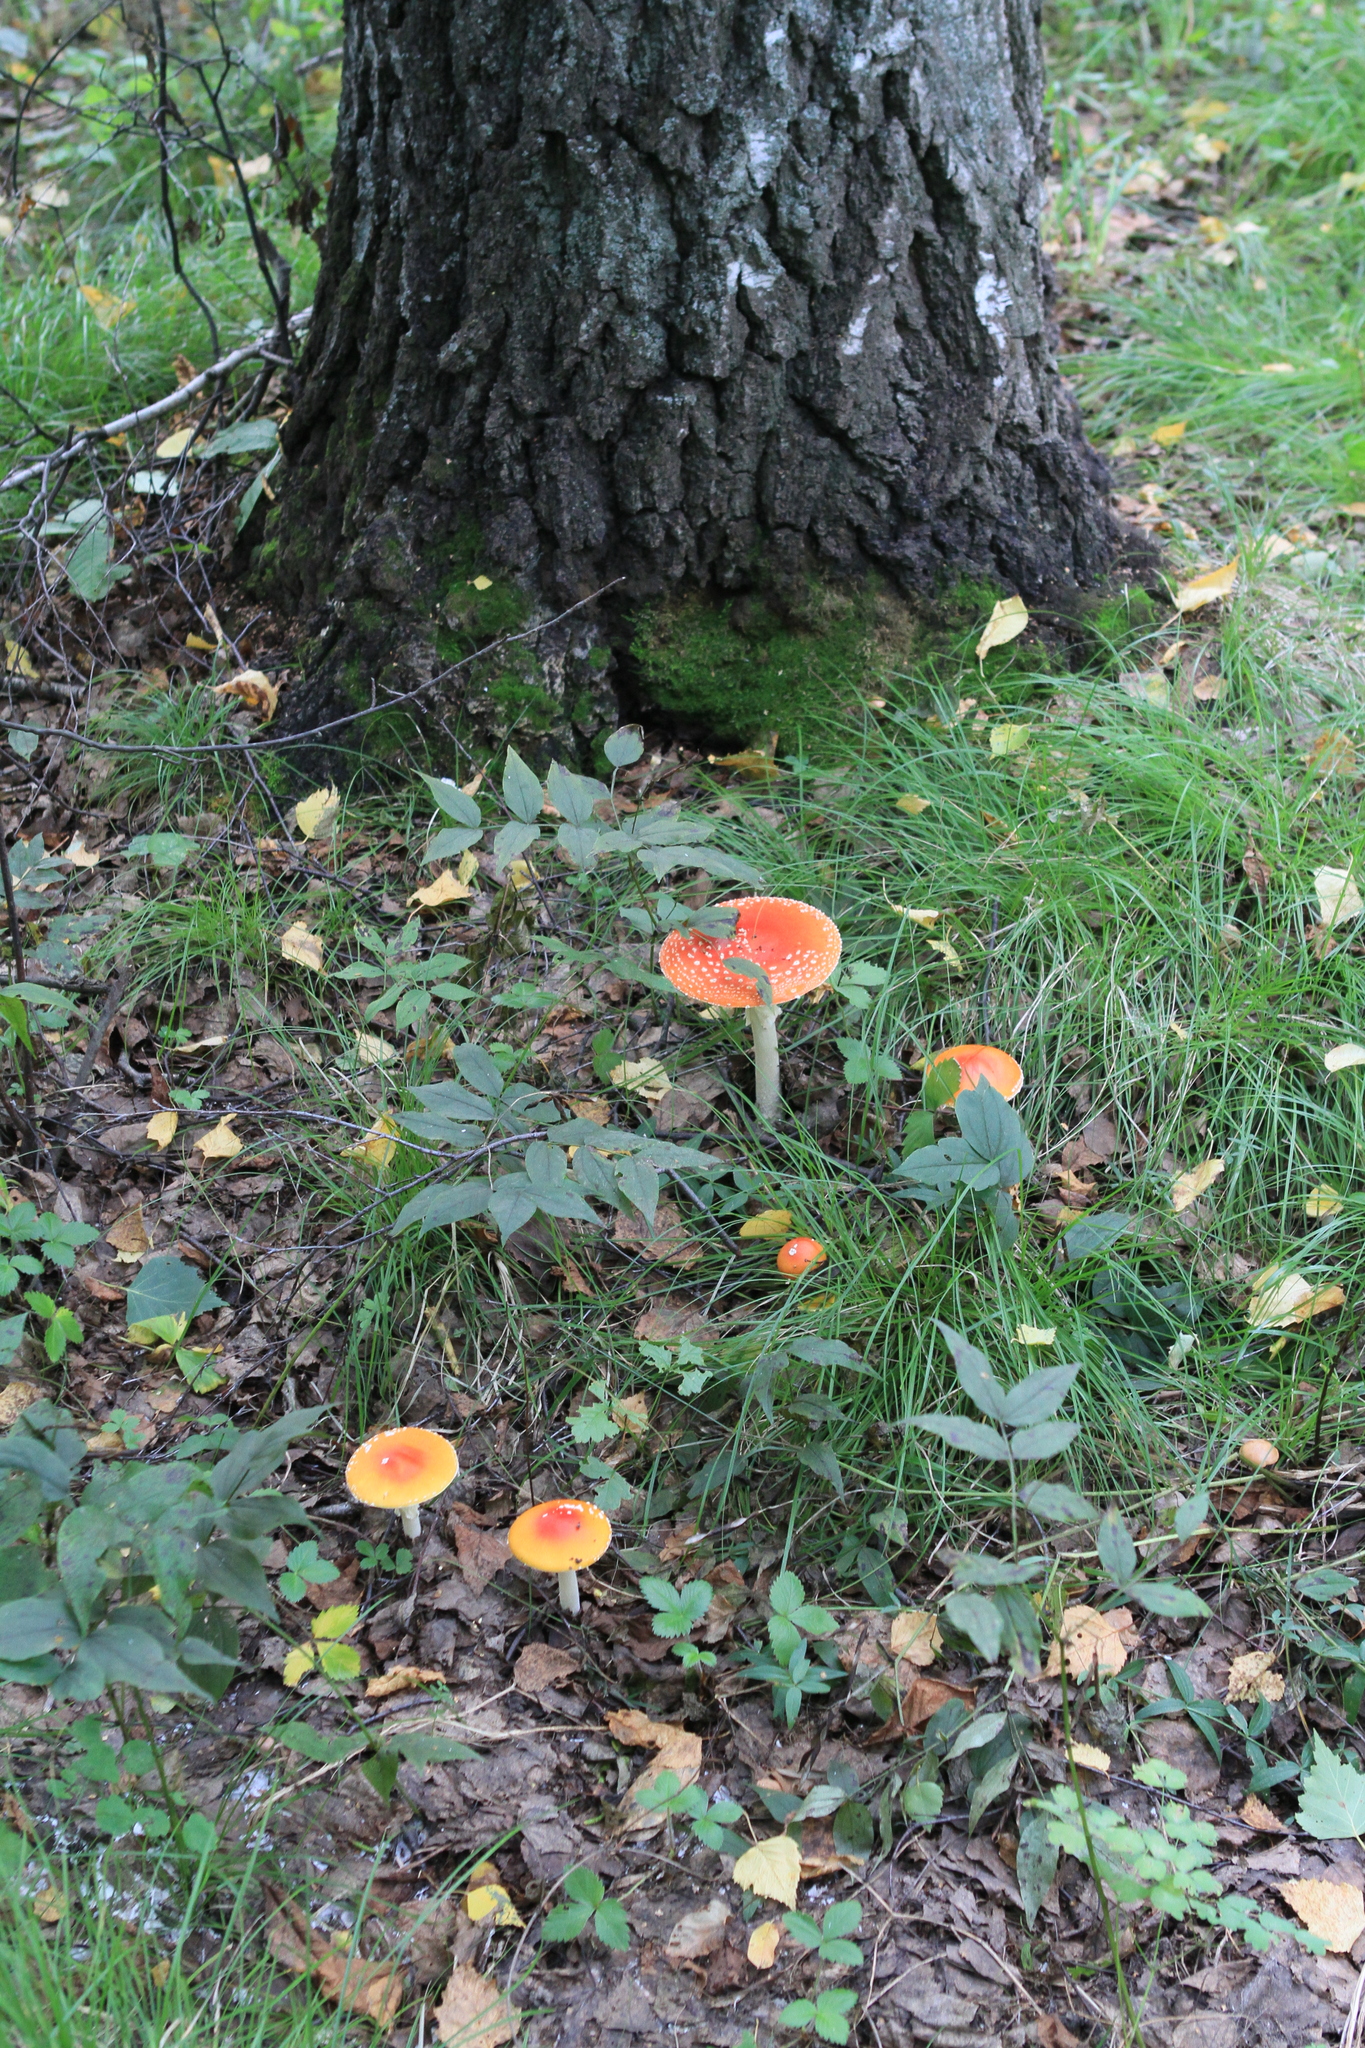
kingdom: Fungi
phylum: Basidiomycota
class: Agaricomycetes
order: Agaricales
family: Amanitaceae
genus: Amanita
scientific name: Amanita muscaria
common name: Fly agaric
